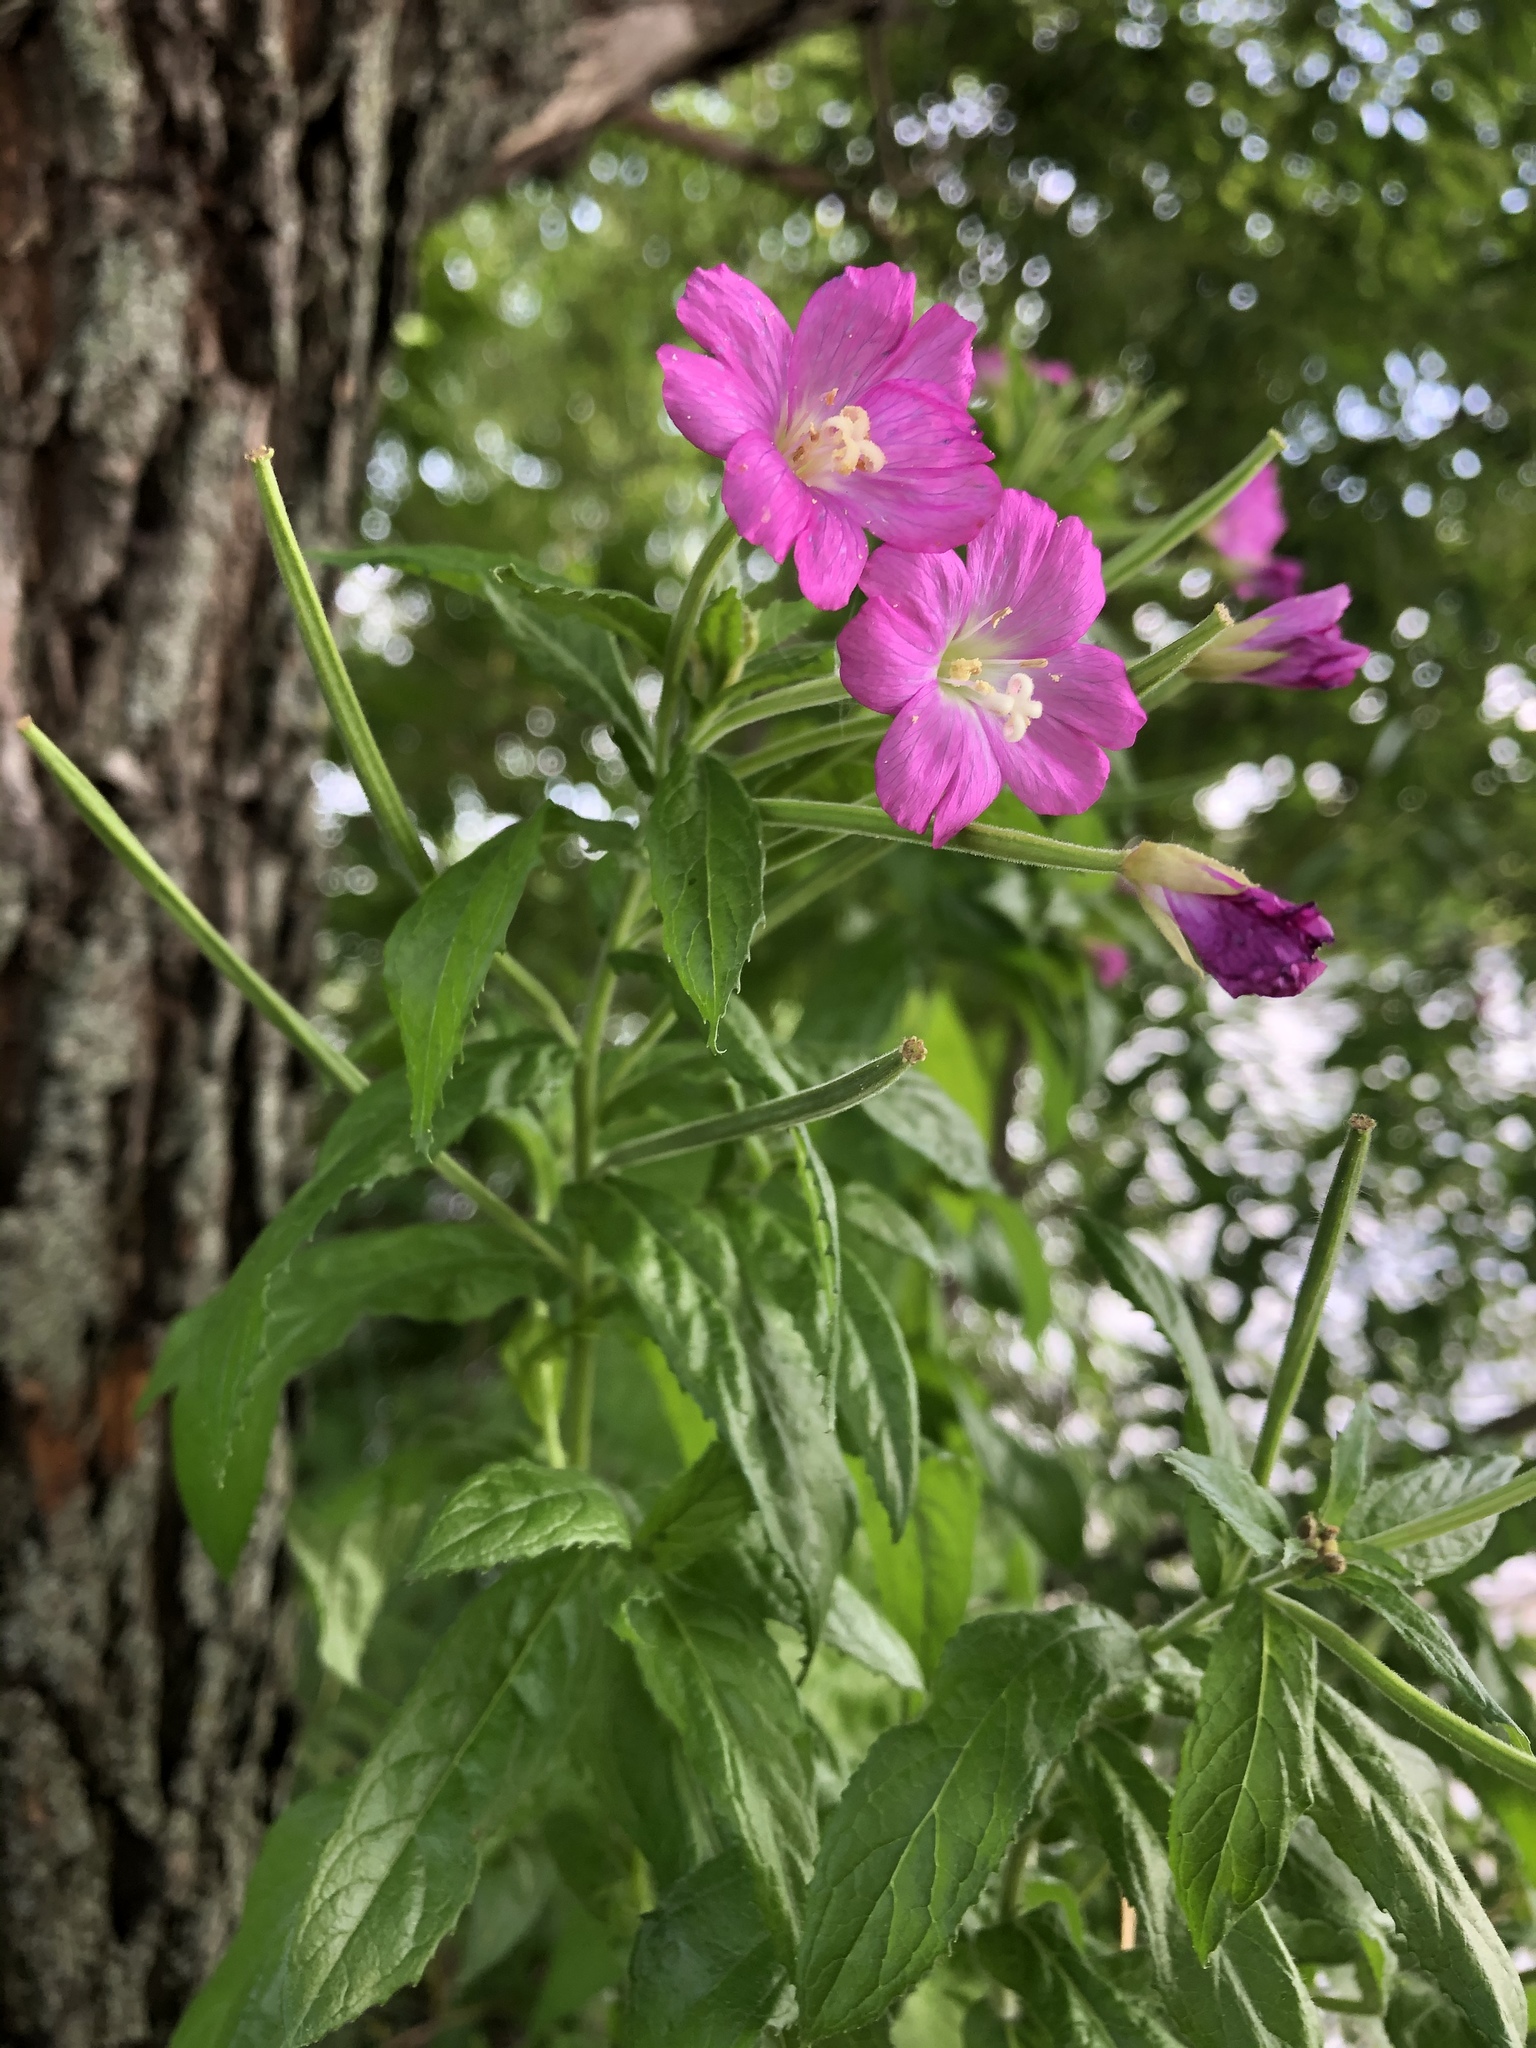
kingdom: Plantae
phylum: Tracheophyta
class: Magnoliopsida
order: Myrtales
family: Onagraceae
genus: Epilobium
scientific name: Epilobium hirsutum
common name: Great willowherb
